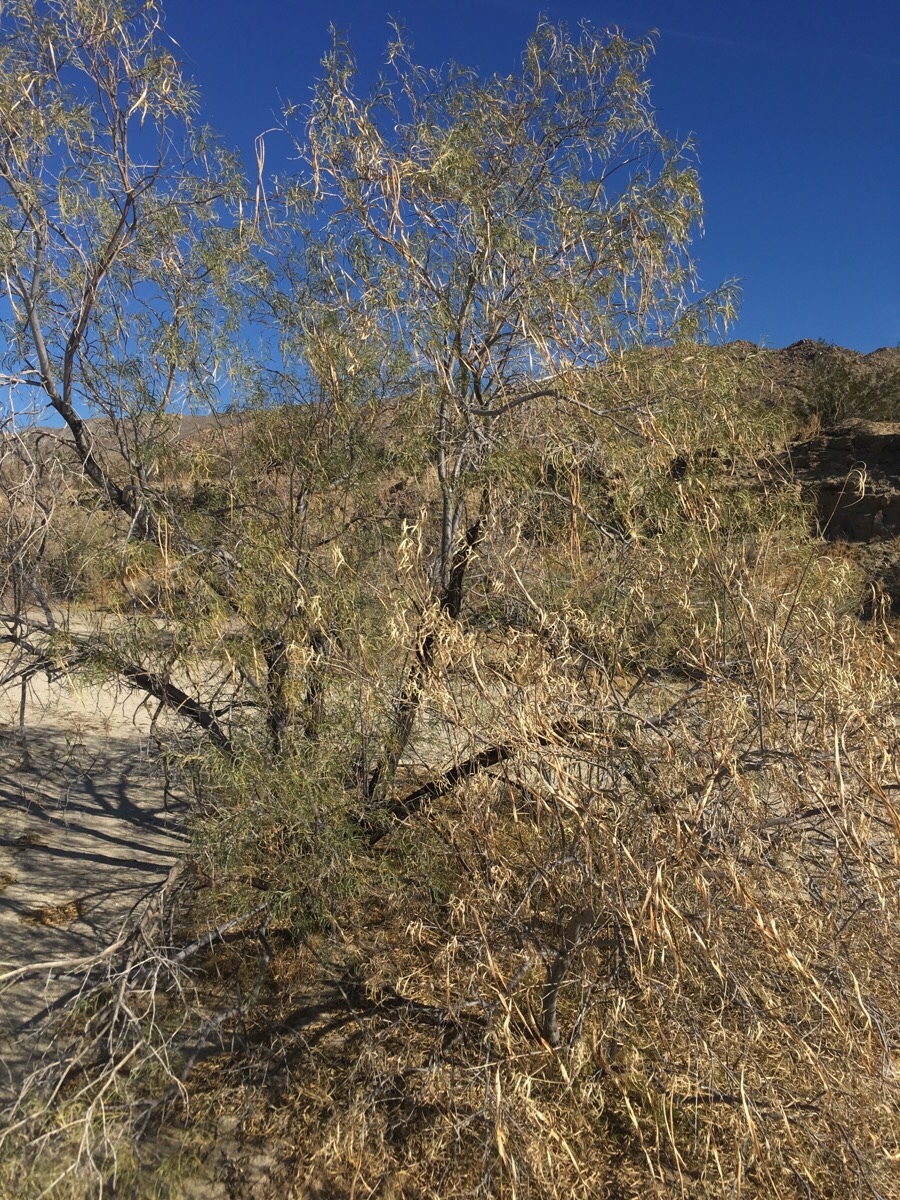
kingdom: Plantae
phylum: Tracheophyta
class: Magnoliopsida
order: Lamiales
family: Bignoniaceae
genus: Chilopsis
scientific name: Chilopsis linearis
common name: Desert-willow
